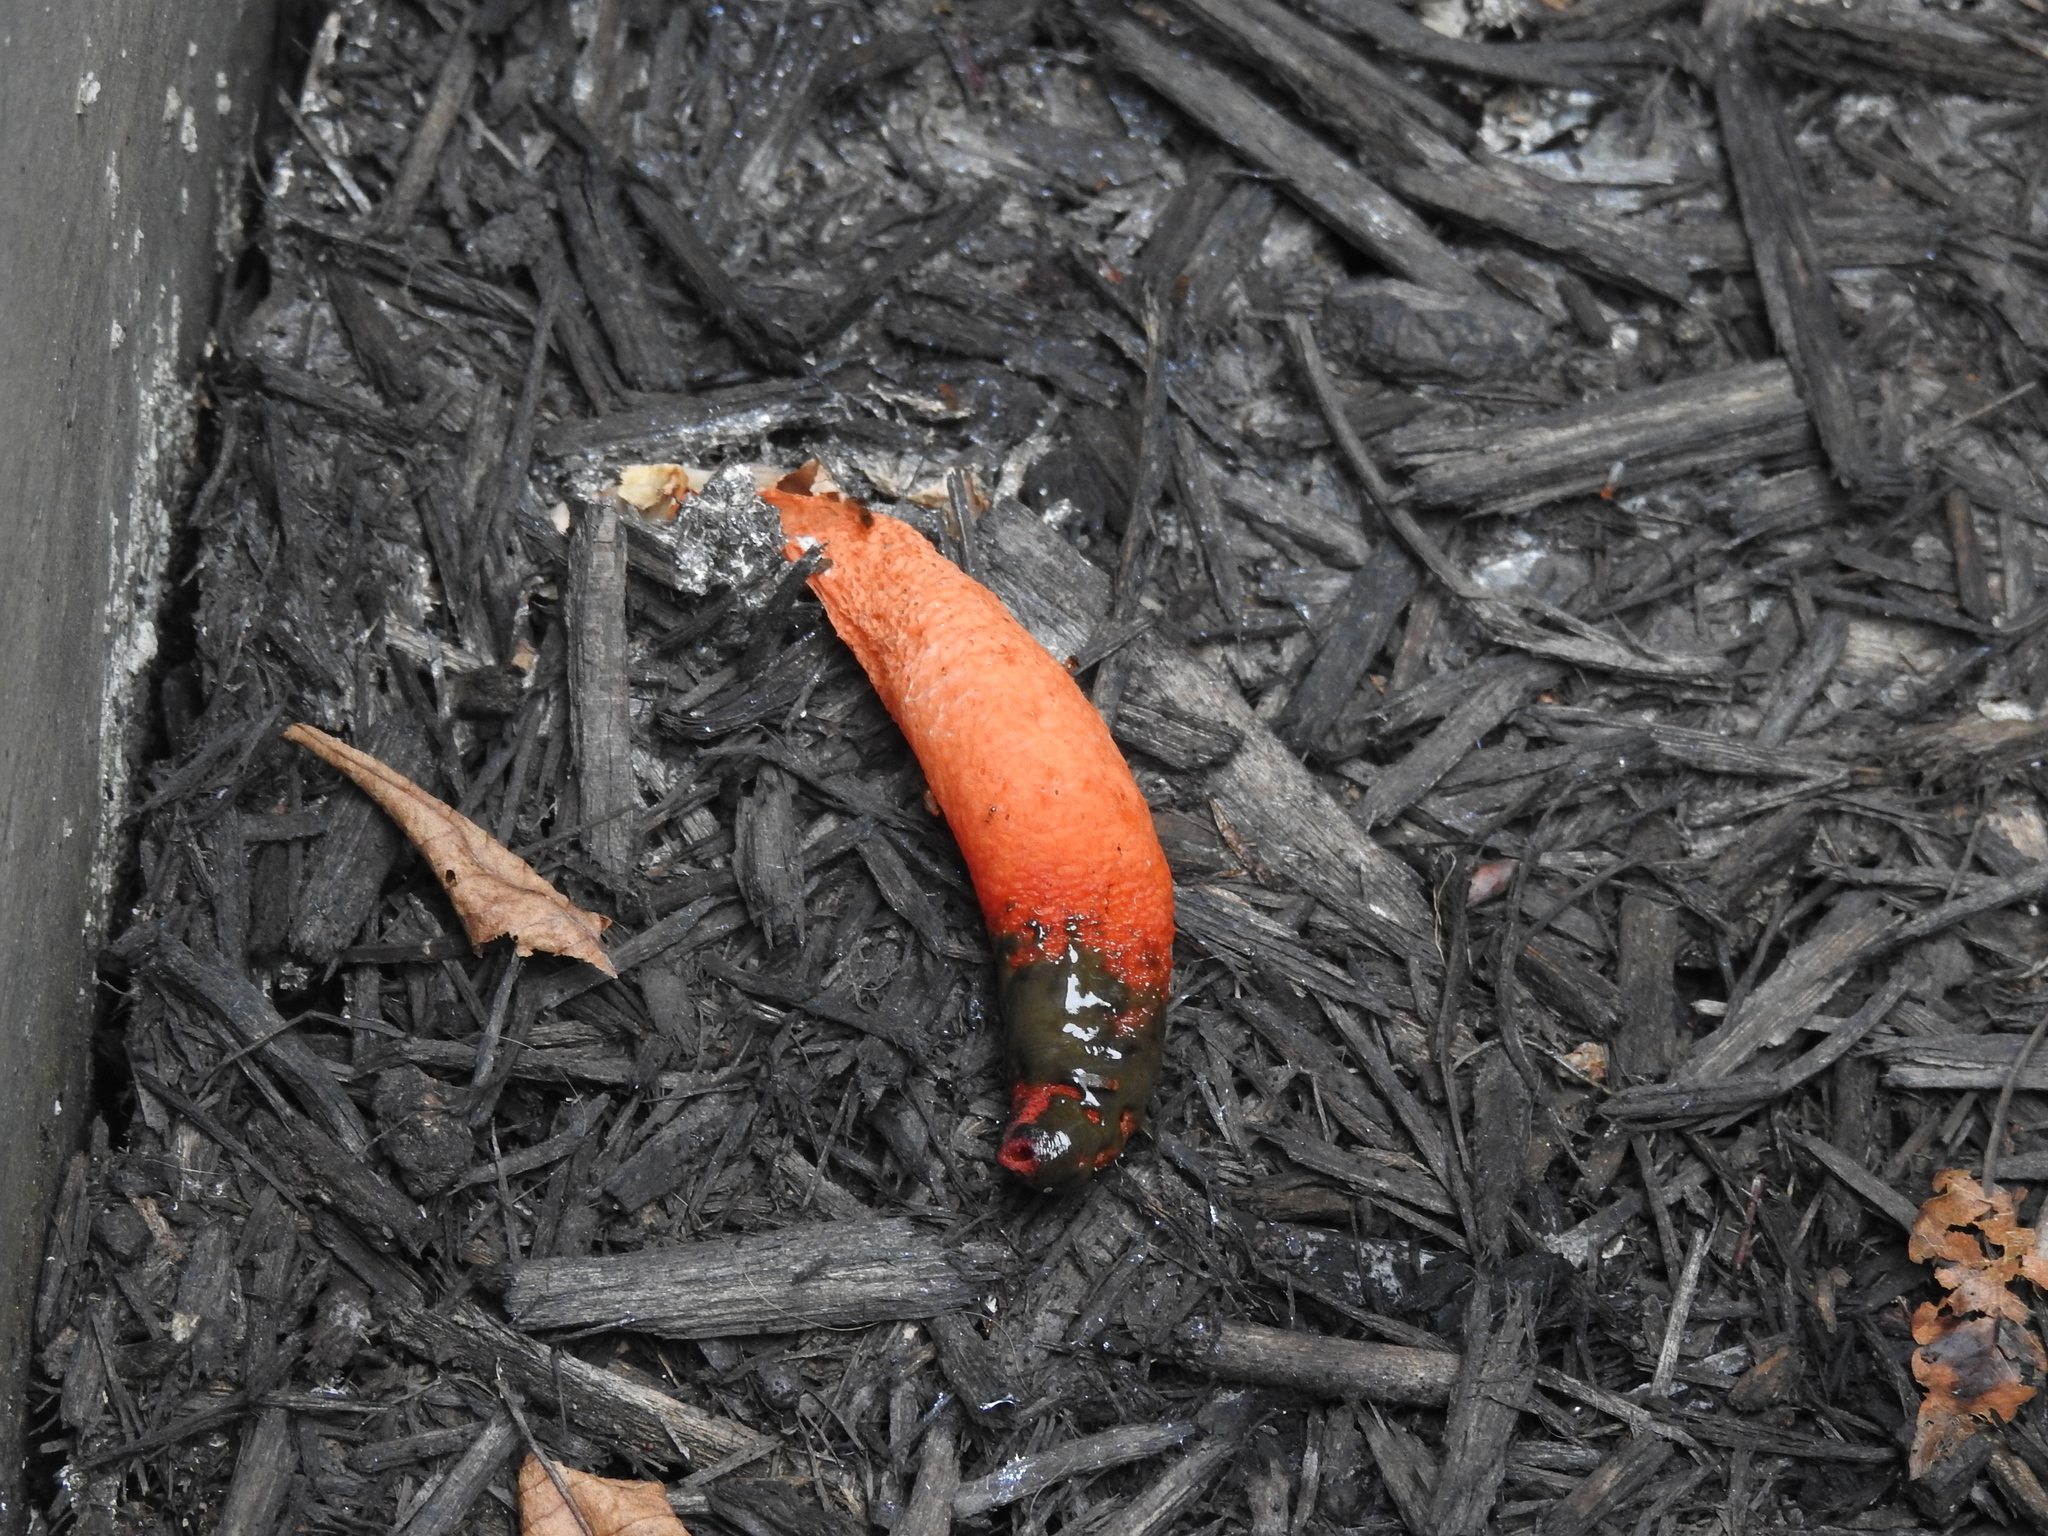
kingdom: Fungi
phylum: Basidiomycota
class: Agaricomycetes
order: Phallales
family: Phallaceae
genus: Mutinus
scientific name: Mutinus elegans
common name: Devil's dipstick
